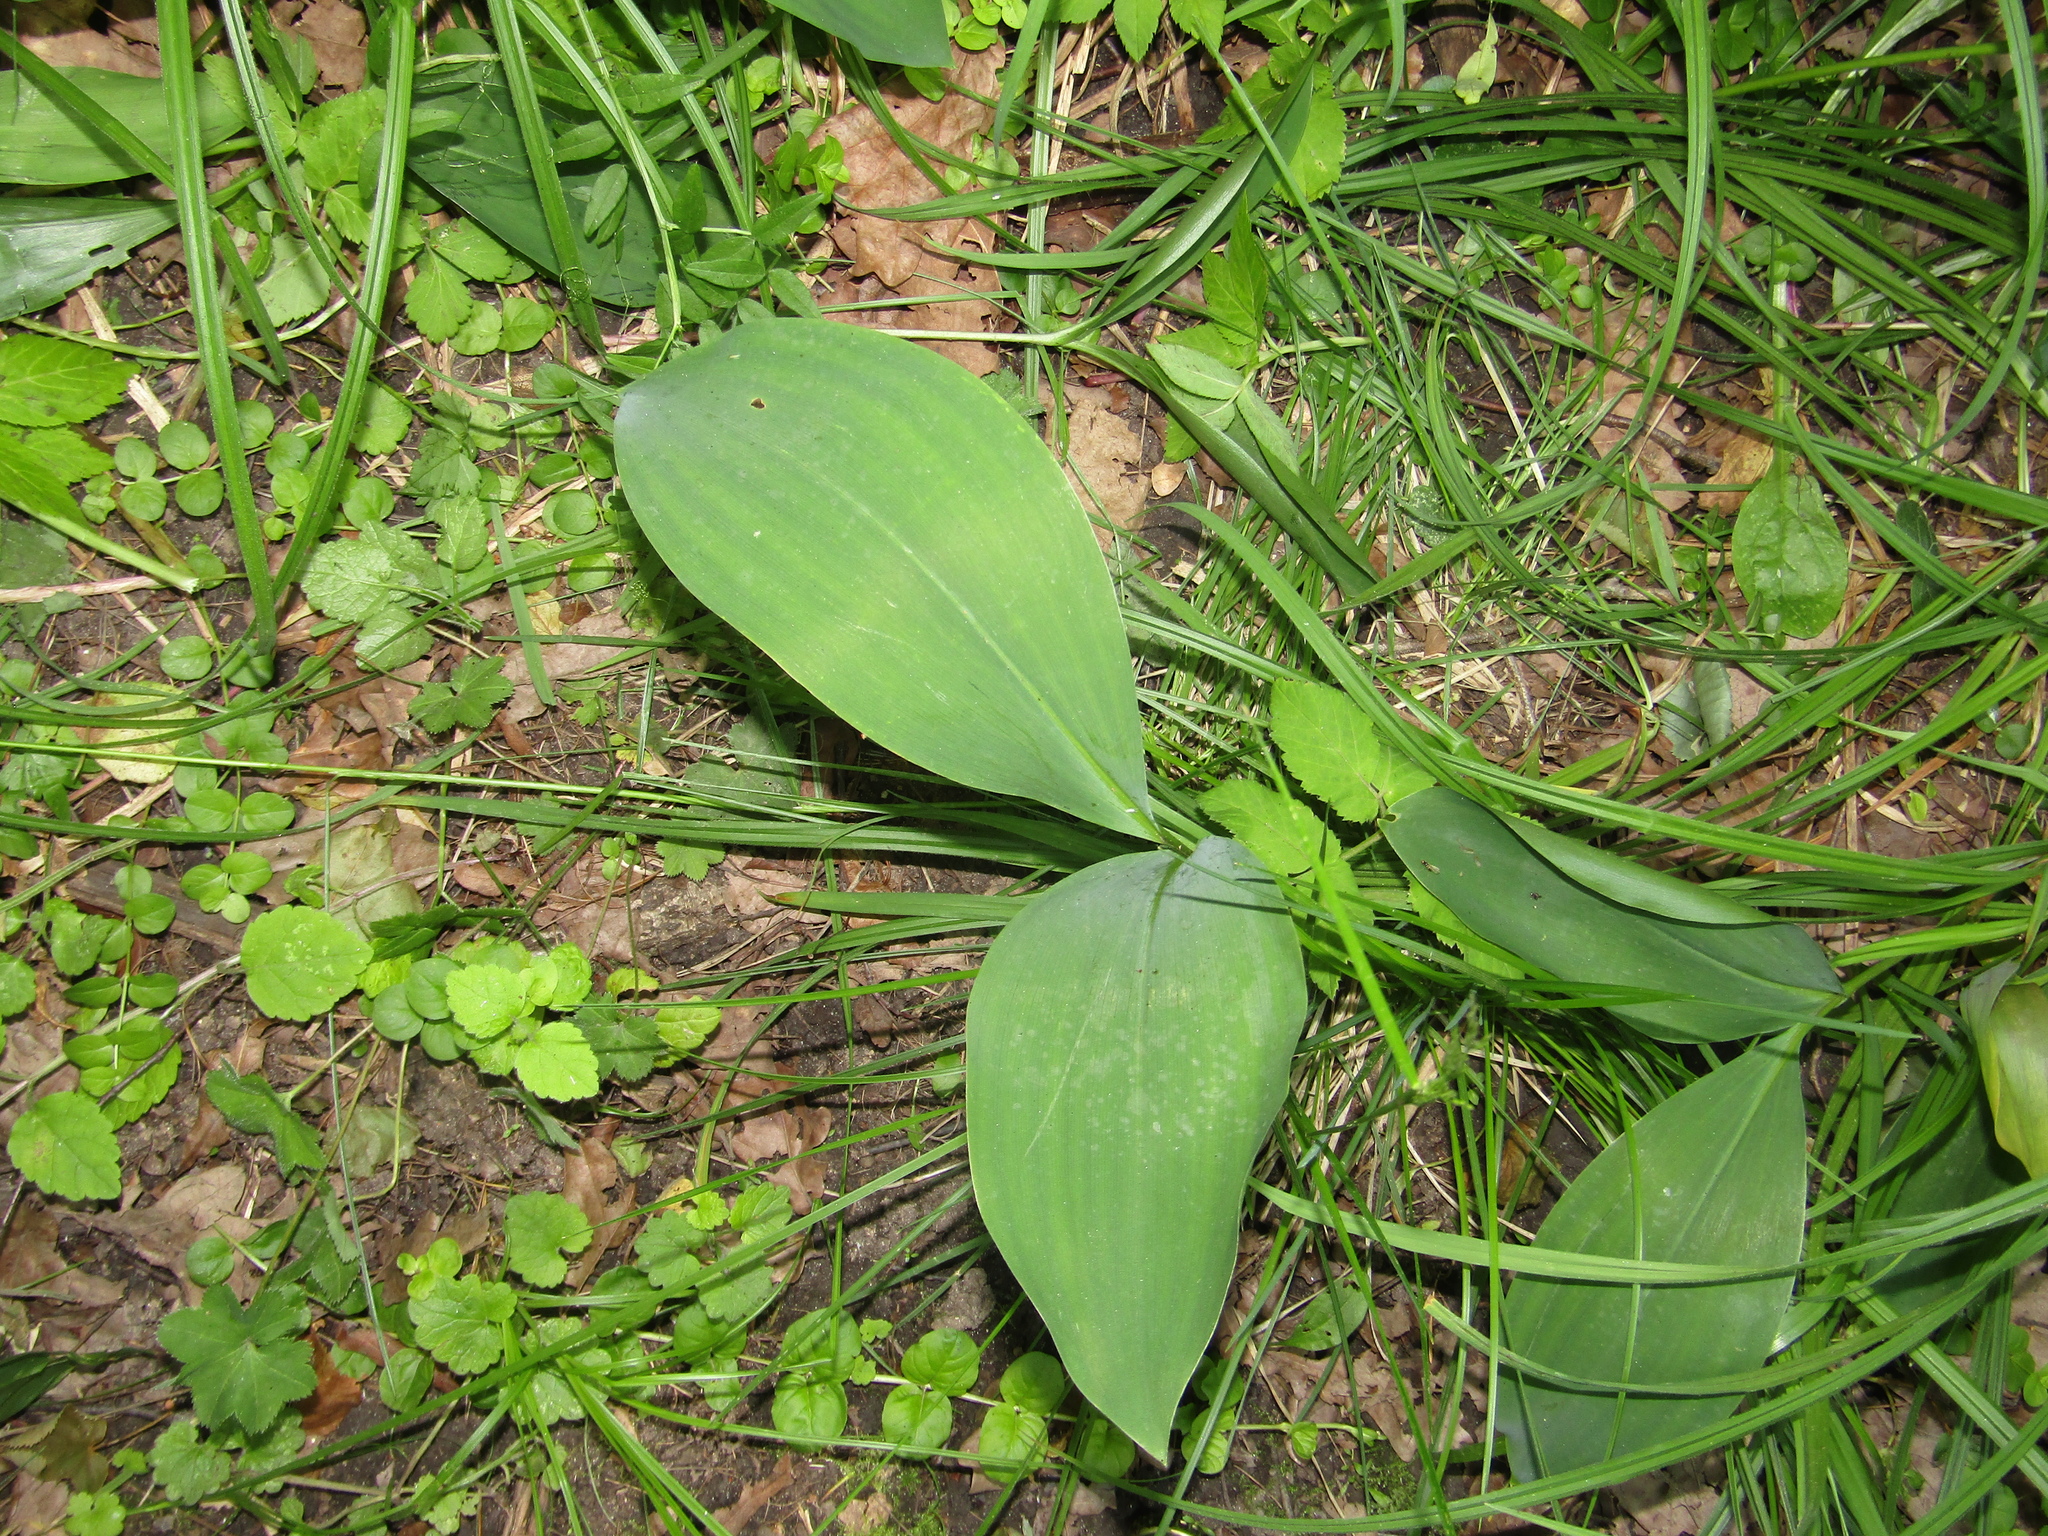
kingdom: Plantae
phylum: Tracheophyta
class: Liliopsida
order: Asparagales
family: Asparagaceae
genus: Convallaria
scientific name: Convallaria majalis
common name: Lily-of-the-valley
